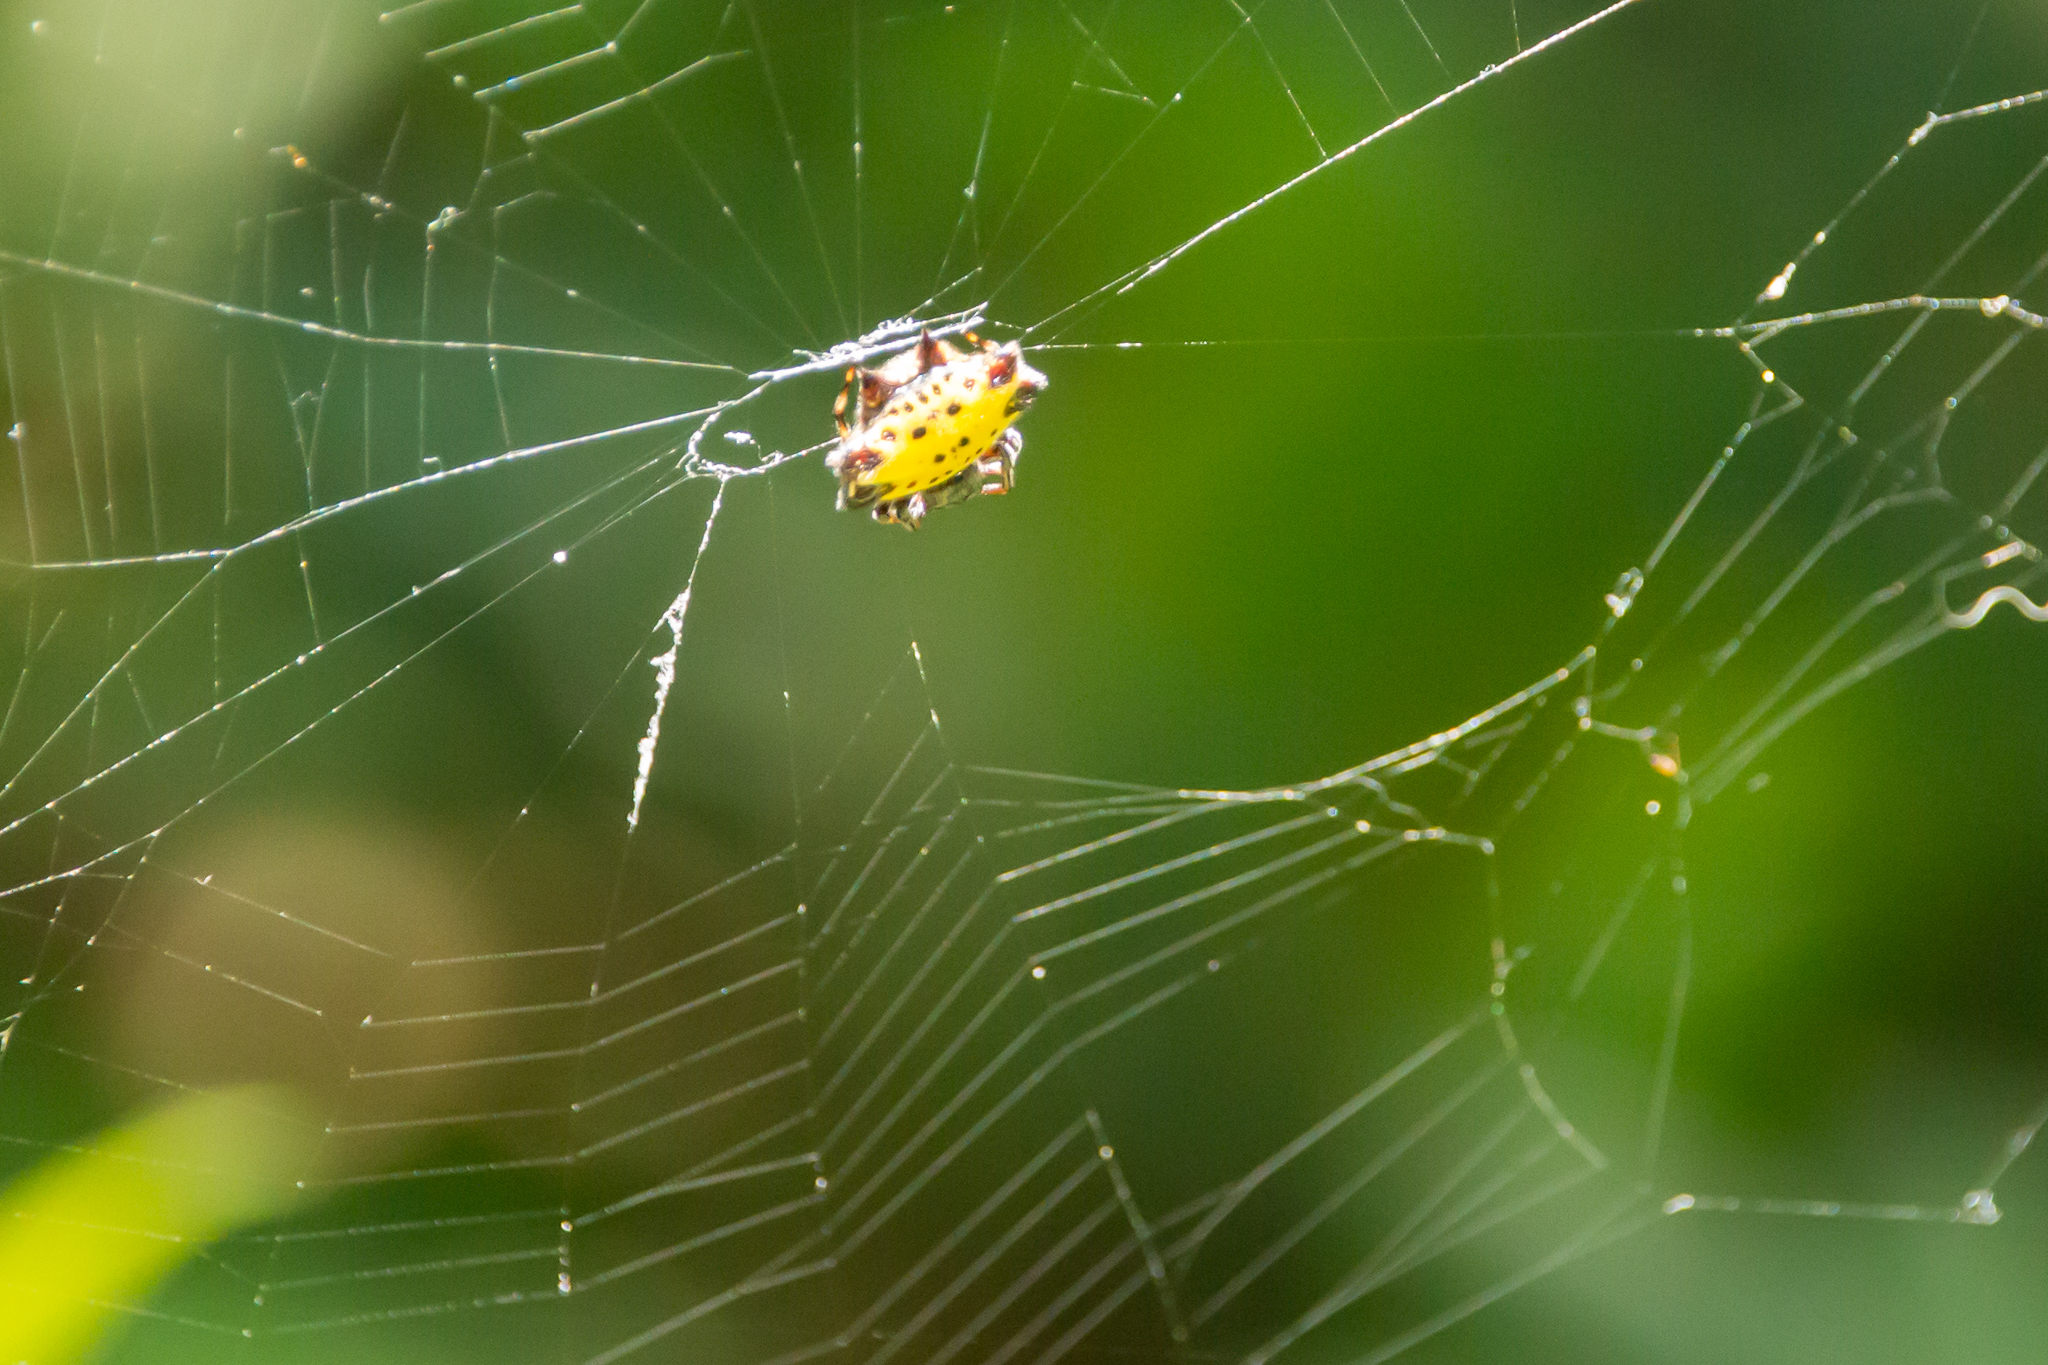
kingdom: Animalia
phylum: Arthropoda
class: Arachnida
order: Araneae
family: Araneidae
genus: Gasteracantha
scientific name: Gasteracantha cancriformis
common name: Orb weavers
